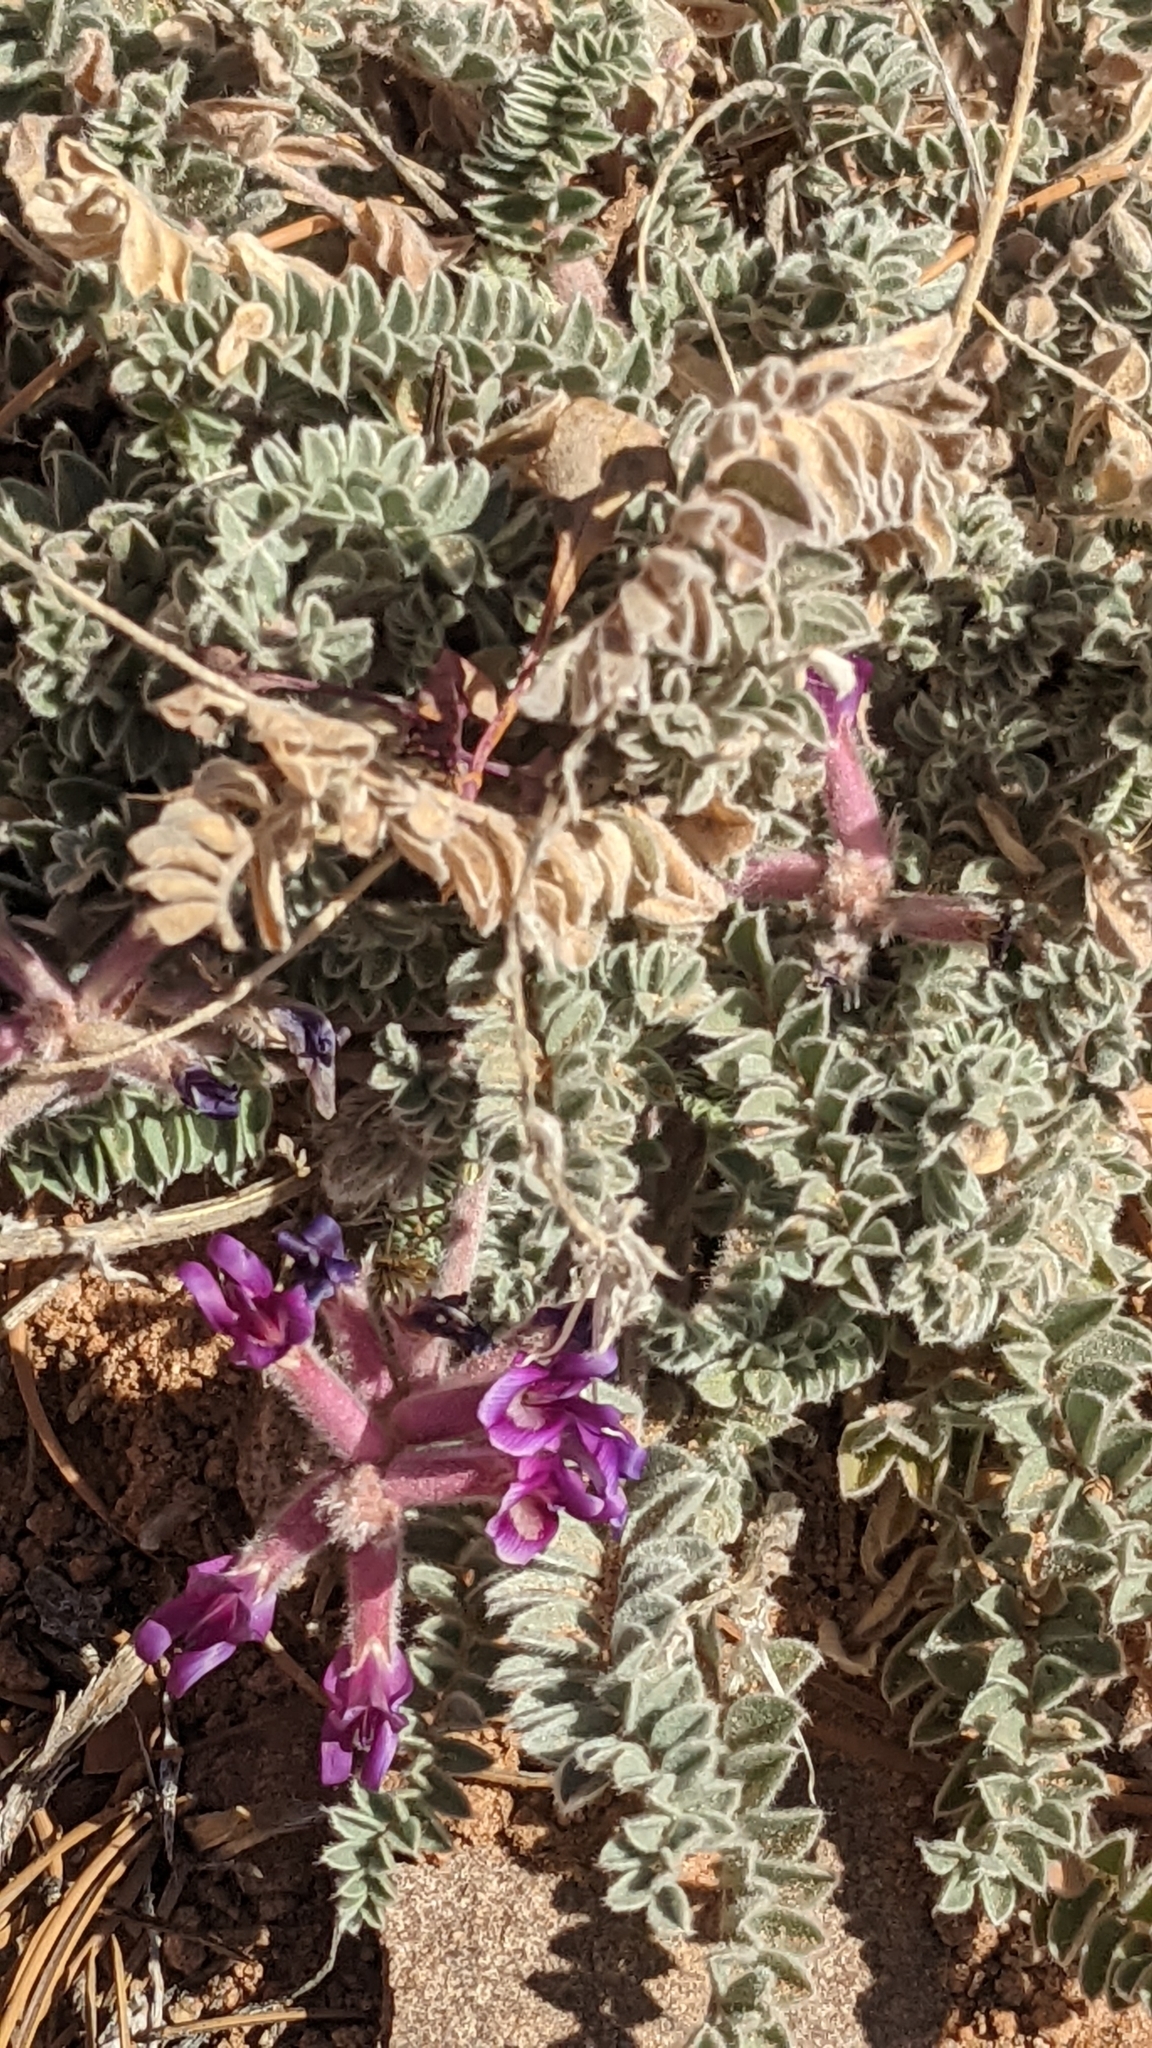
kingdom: Plantae
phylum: Tracheophyta
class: Magnoliopsida
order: Fabales
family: Fabaceae
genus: Astragalus
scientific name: Astragalus mollissimus
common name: Woolly locoweed
